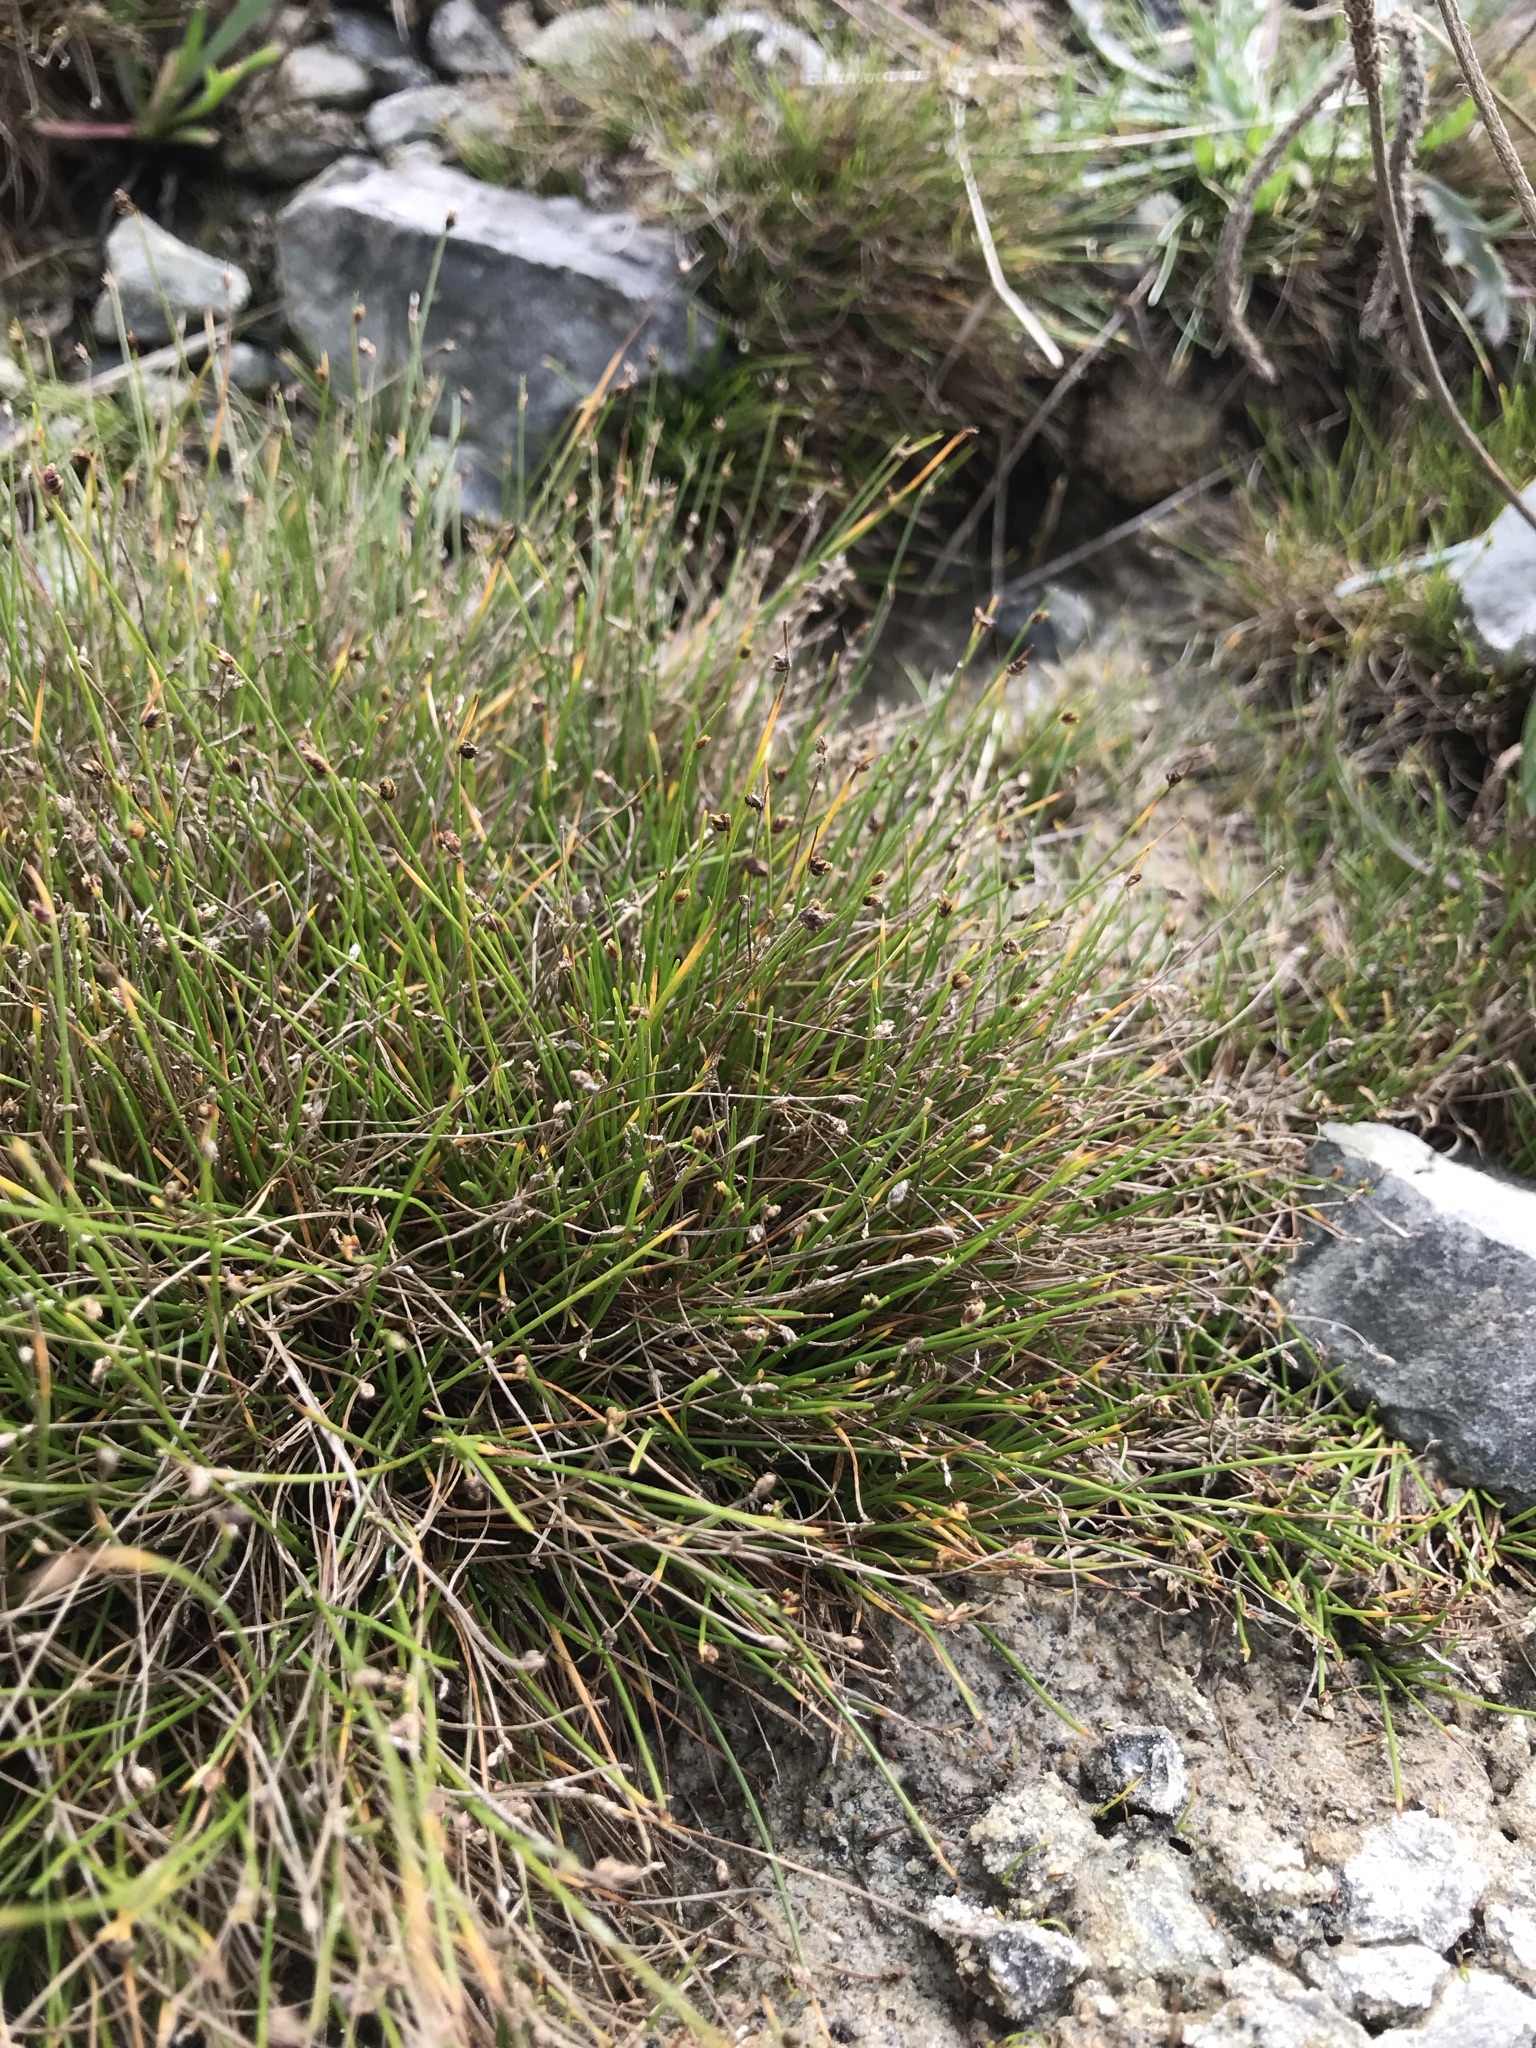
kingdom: Plantae
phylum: Tracheophyta
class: Liliopsida
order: Poales
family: Cyperaceae
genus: Isolepis
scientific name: Isolepis cernua
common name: Slender club-rush
